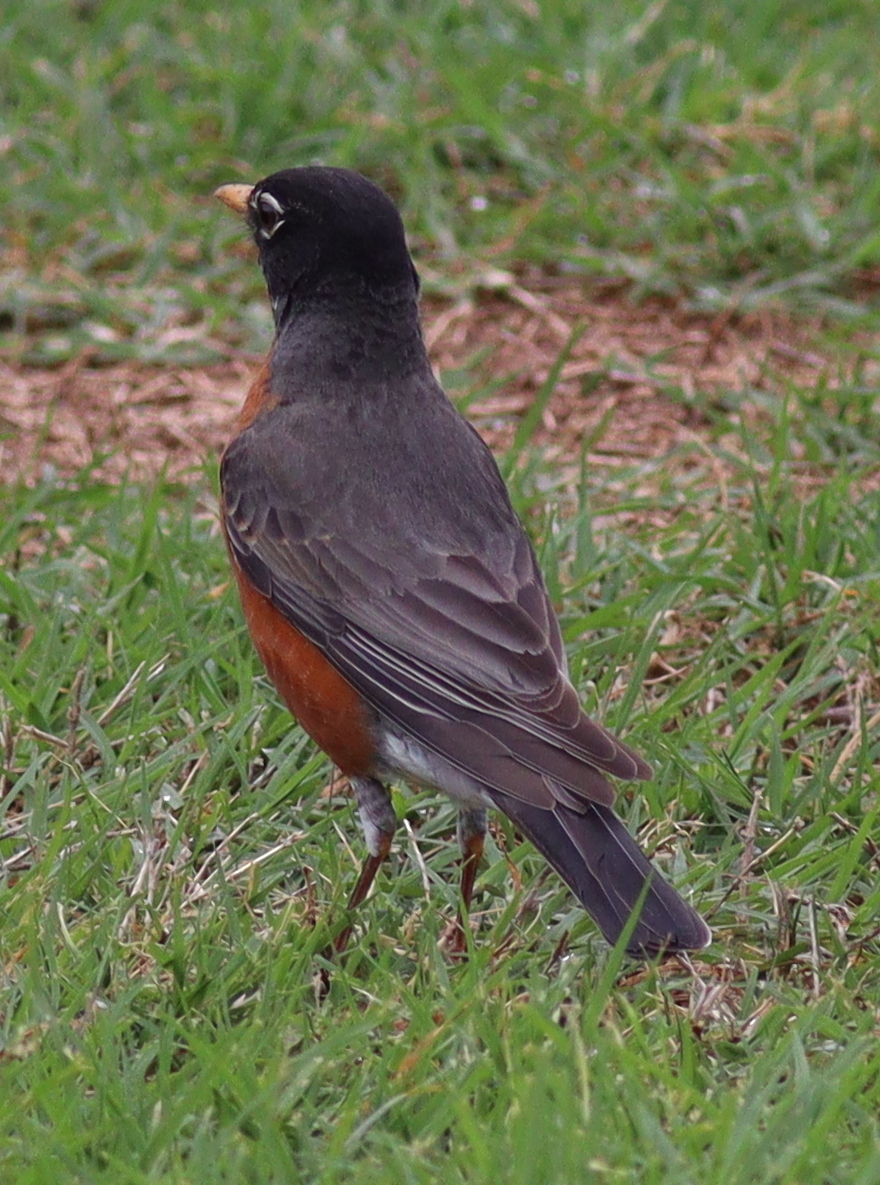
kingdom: Animalia
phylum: Chordata
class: Aves
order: Passeriformes
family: Turdidae
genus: Turdus
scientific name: Turdus migratorius
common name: American robin
